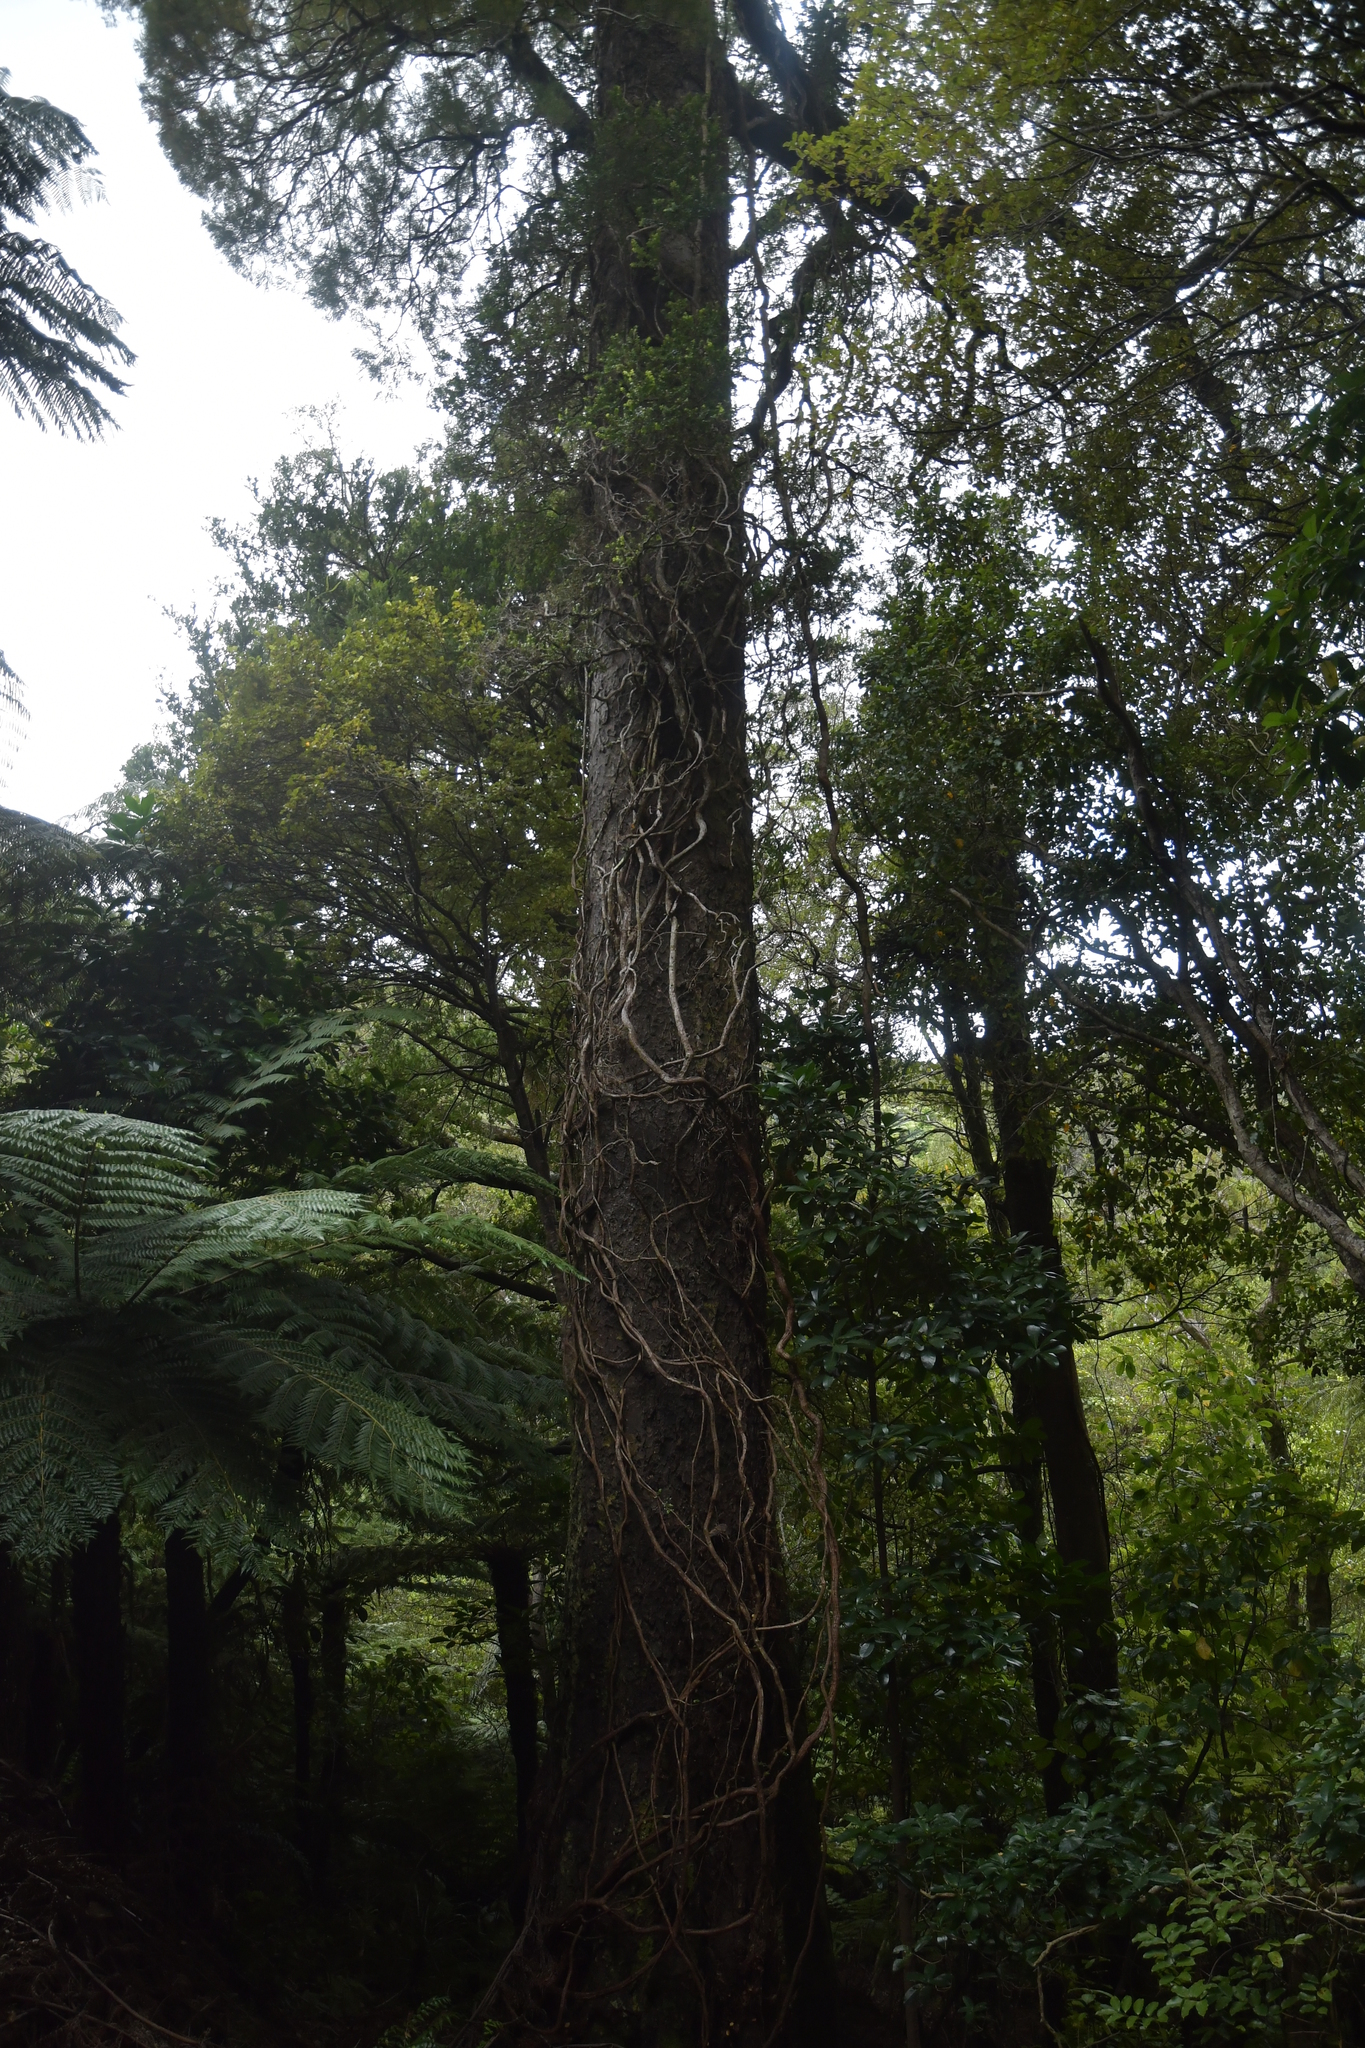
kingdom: Plantae
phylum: Tracheophyta
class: Pinopsida
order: Pinales
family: Podocarpaceae
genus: Dacrycarpus
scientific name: Dacrycarpus dacrydioides
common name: White pine
